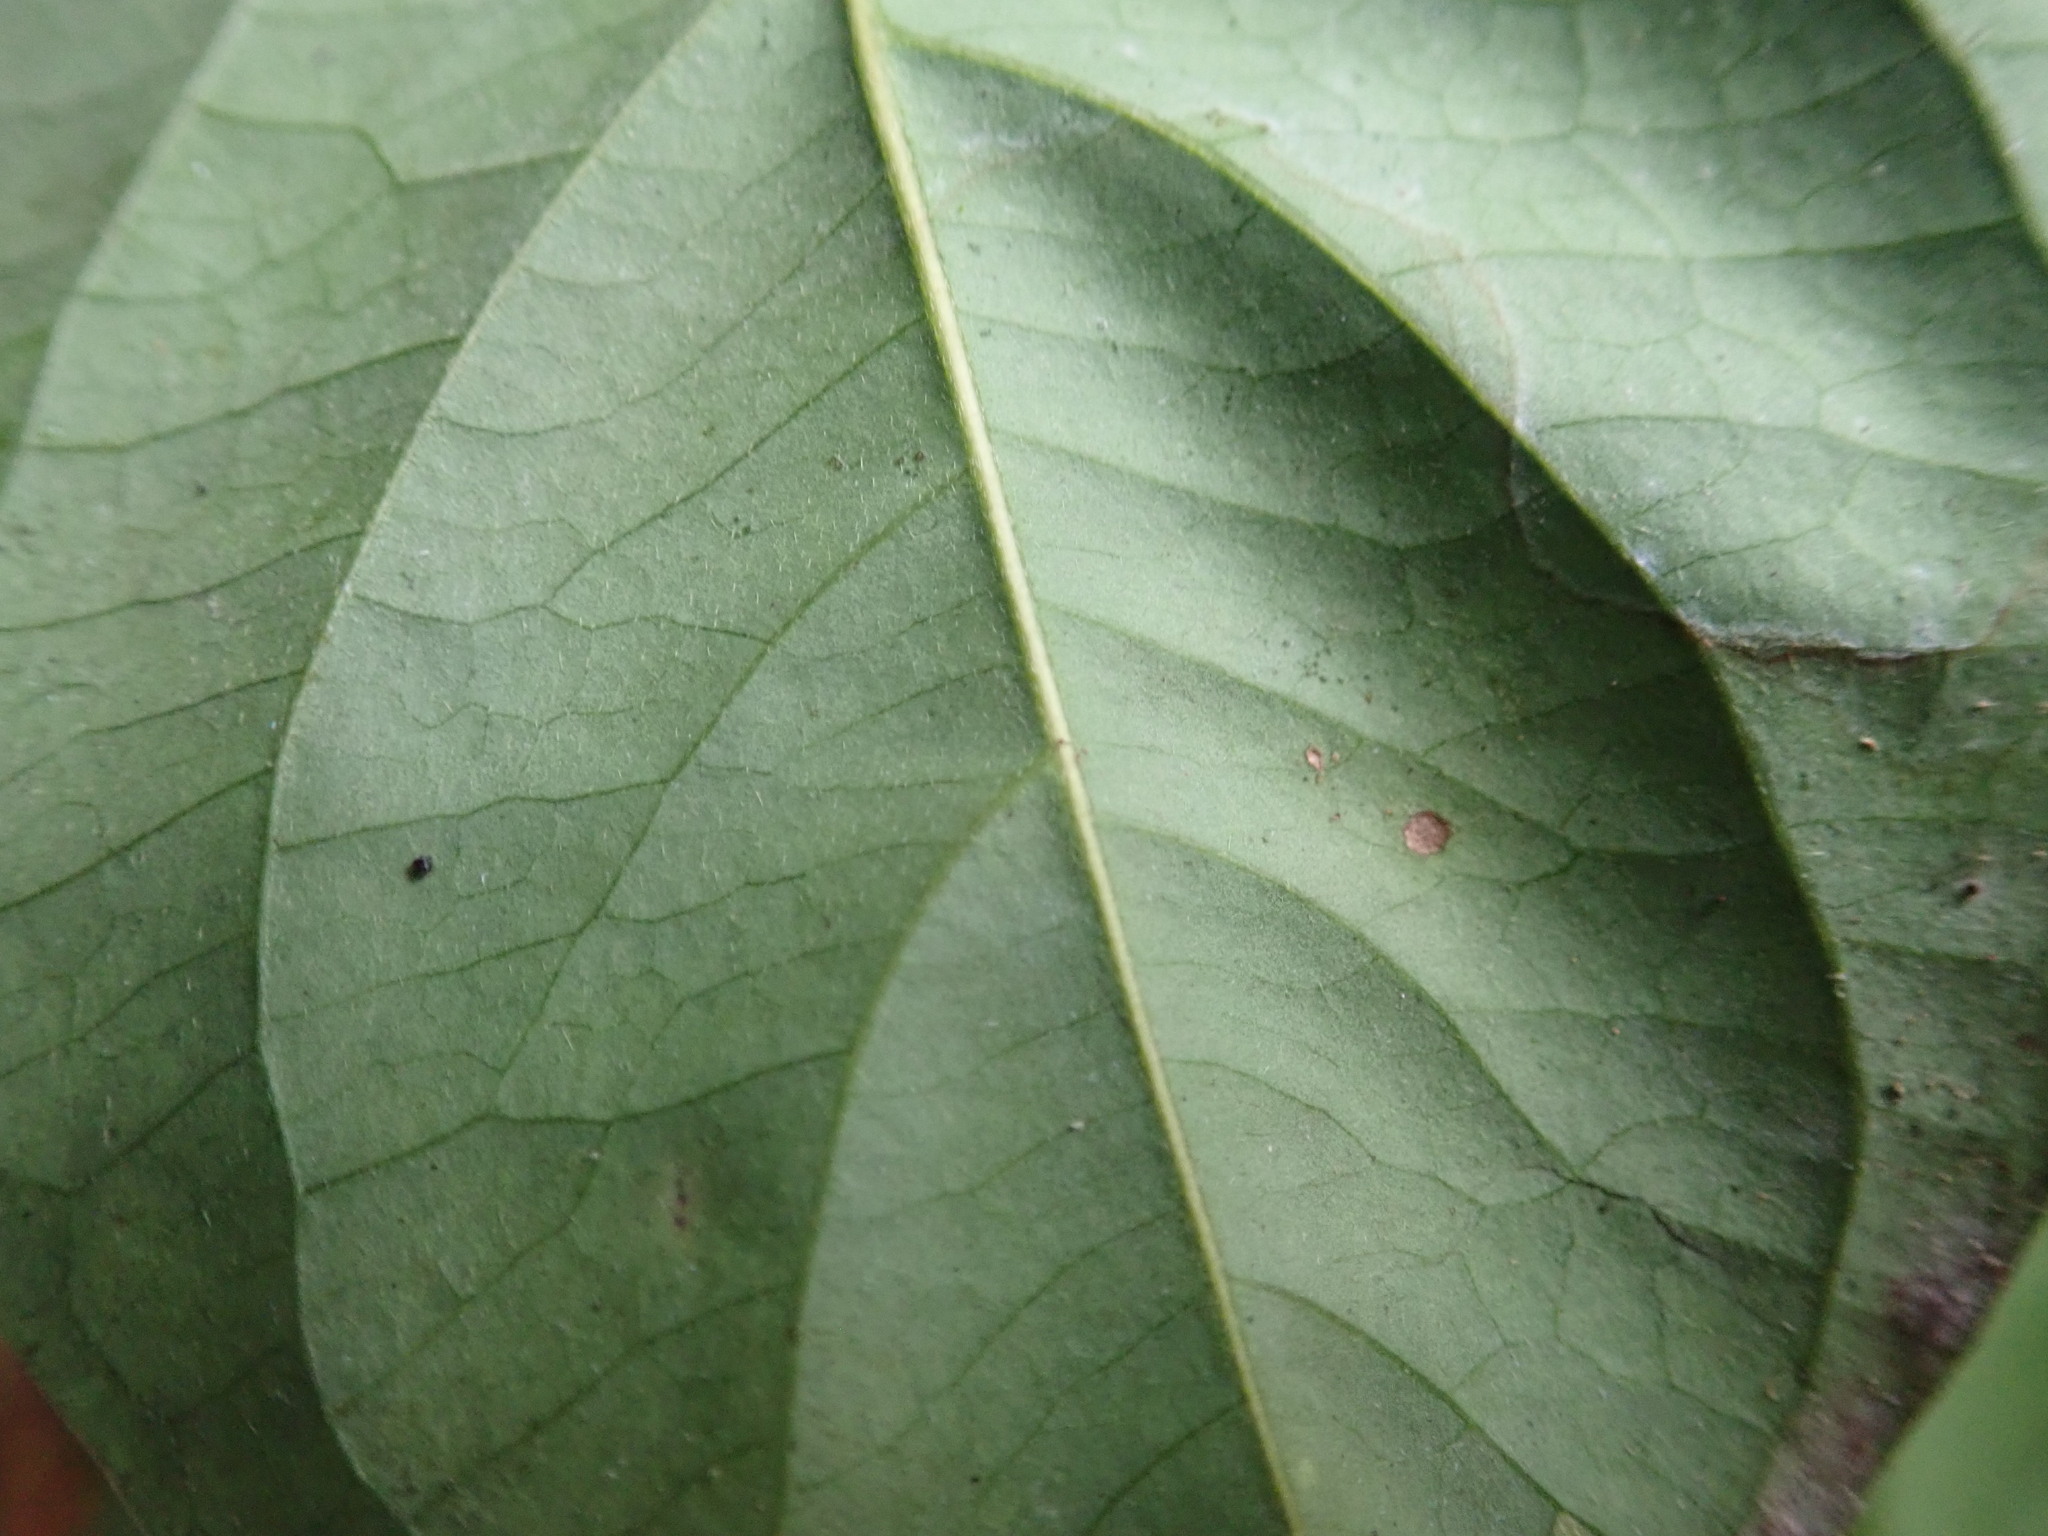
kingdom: Plantae
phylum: Tracheophyta
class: Magnoliopsida
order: Malpighiales
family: Malpighiaceae
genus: Banisteriopsis
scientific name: Banisteriopsis caapi
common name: Soulvine
